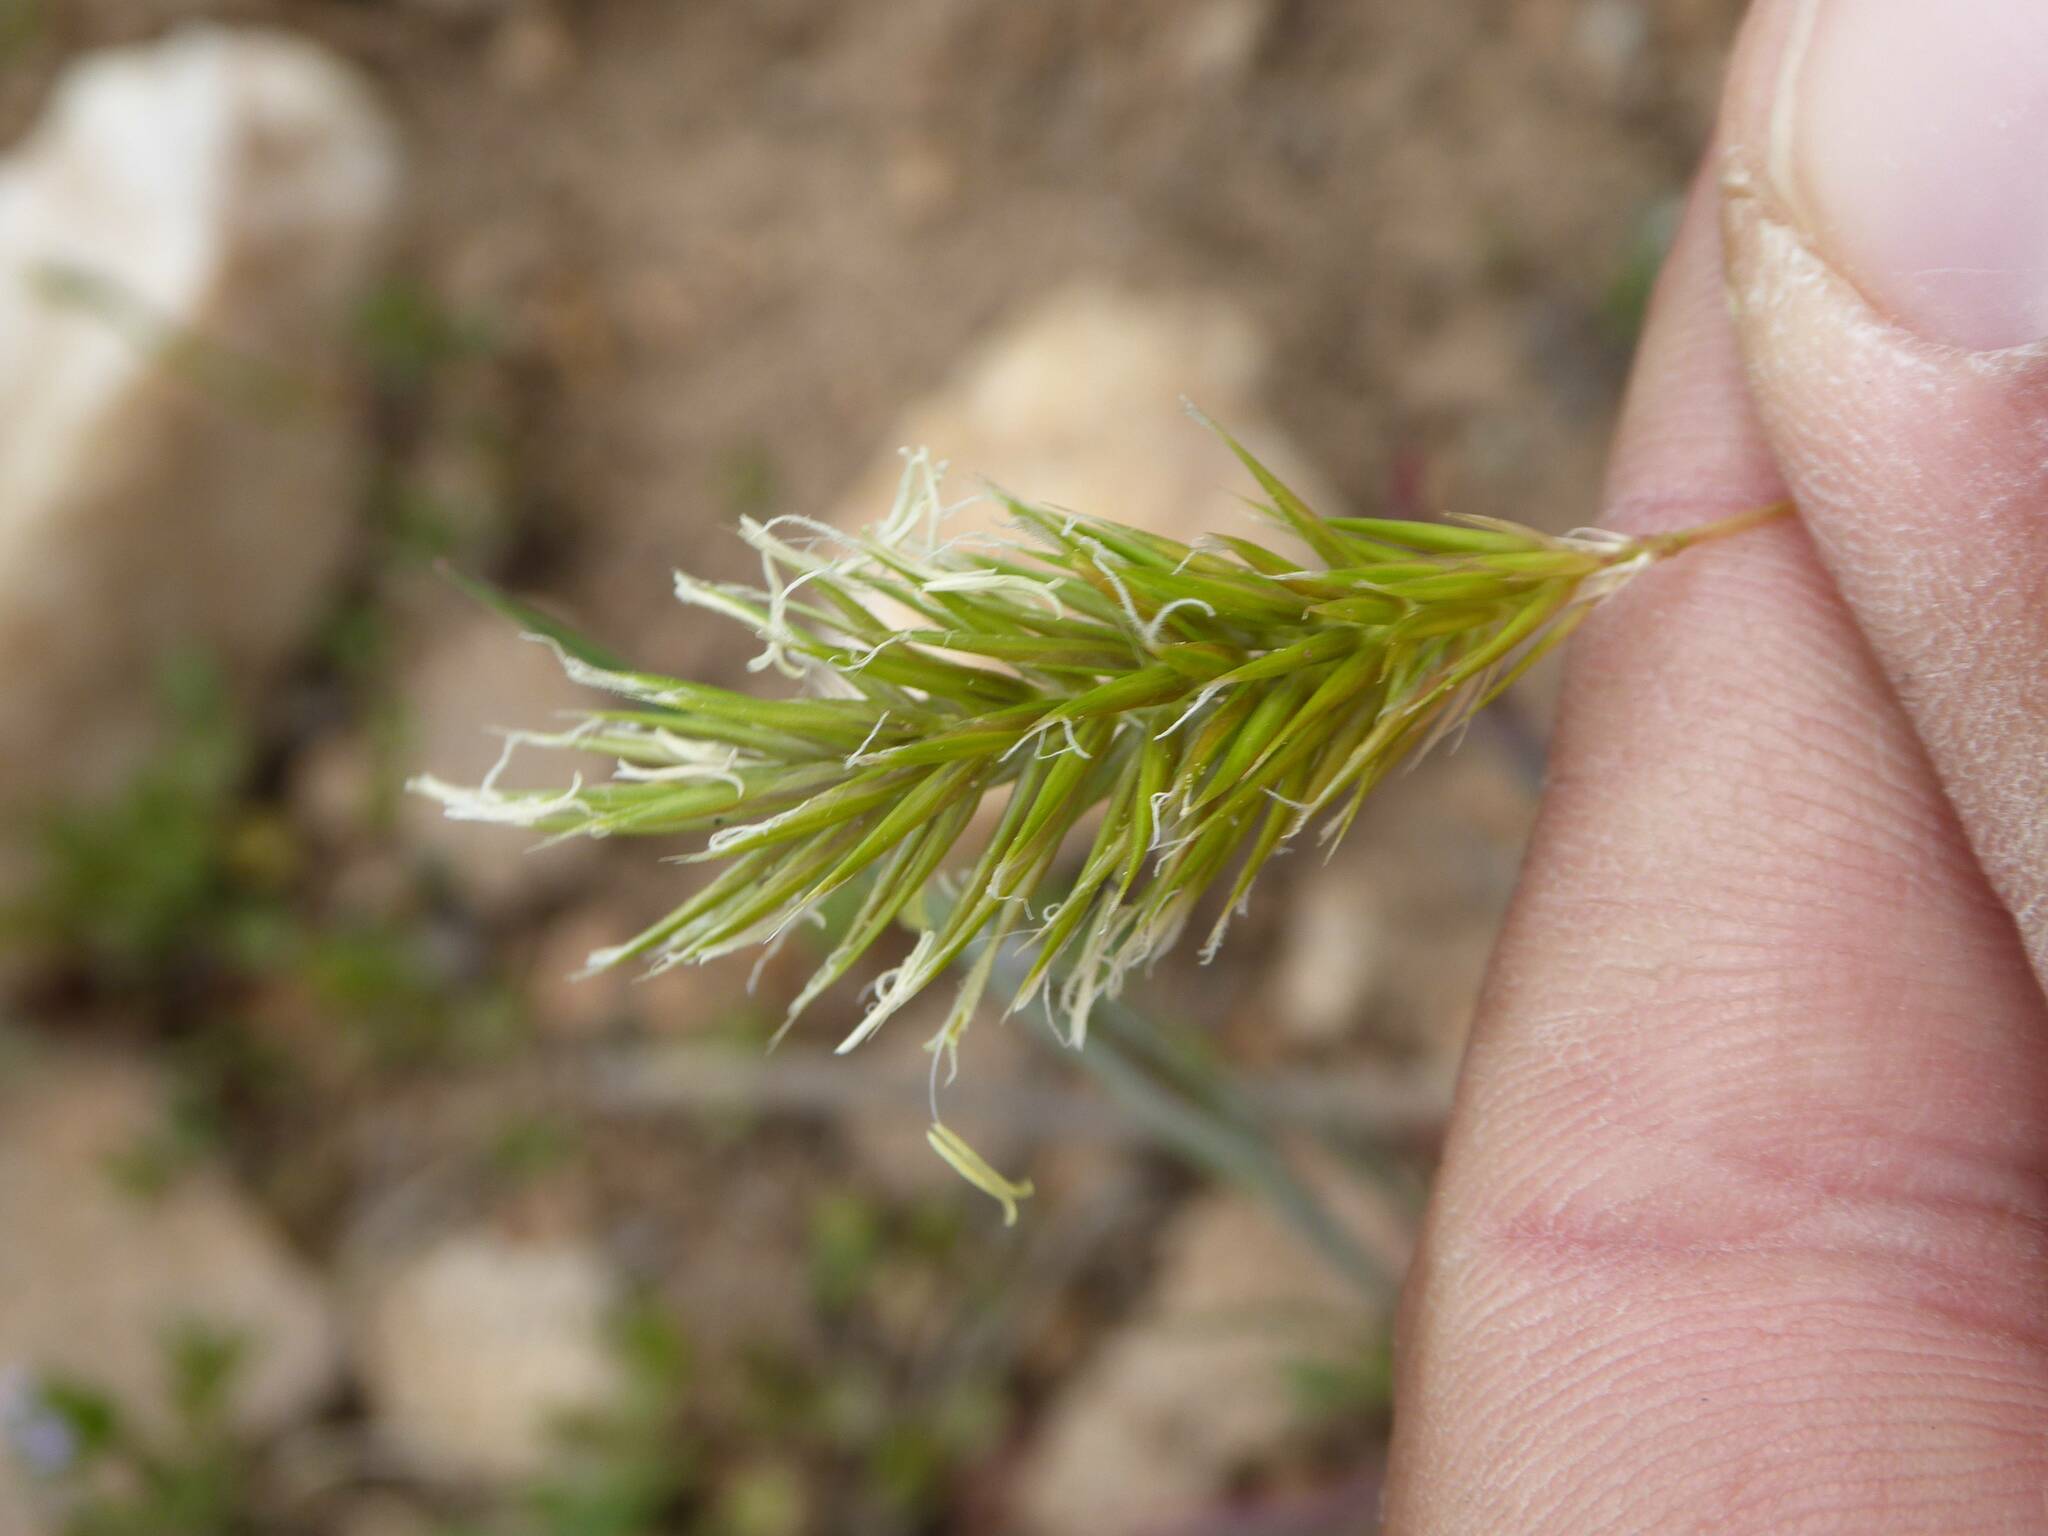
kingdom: Plantae
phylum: Tracheophyta
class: Liliopsida
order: Poales
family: Poaceae
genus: Anthoxanthum
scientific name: Anthoxanthum odoratum
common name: Sweet vernalgrass
